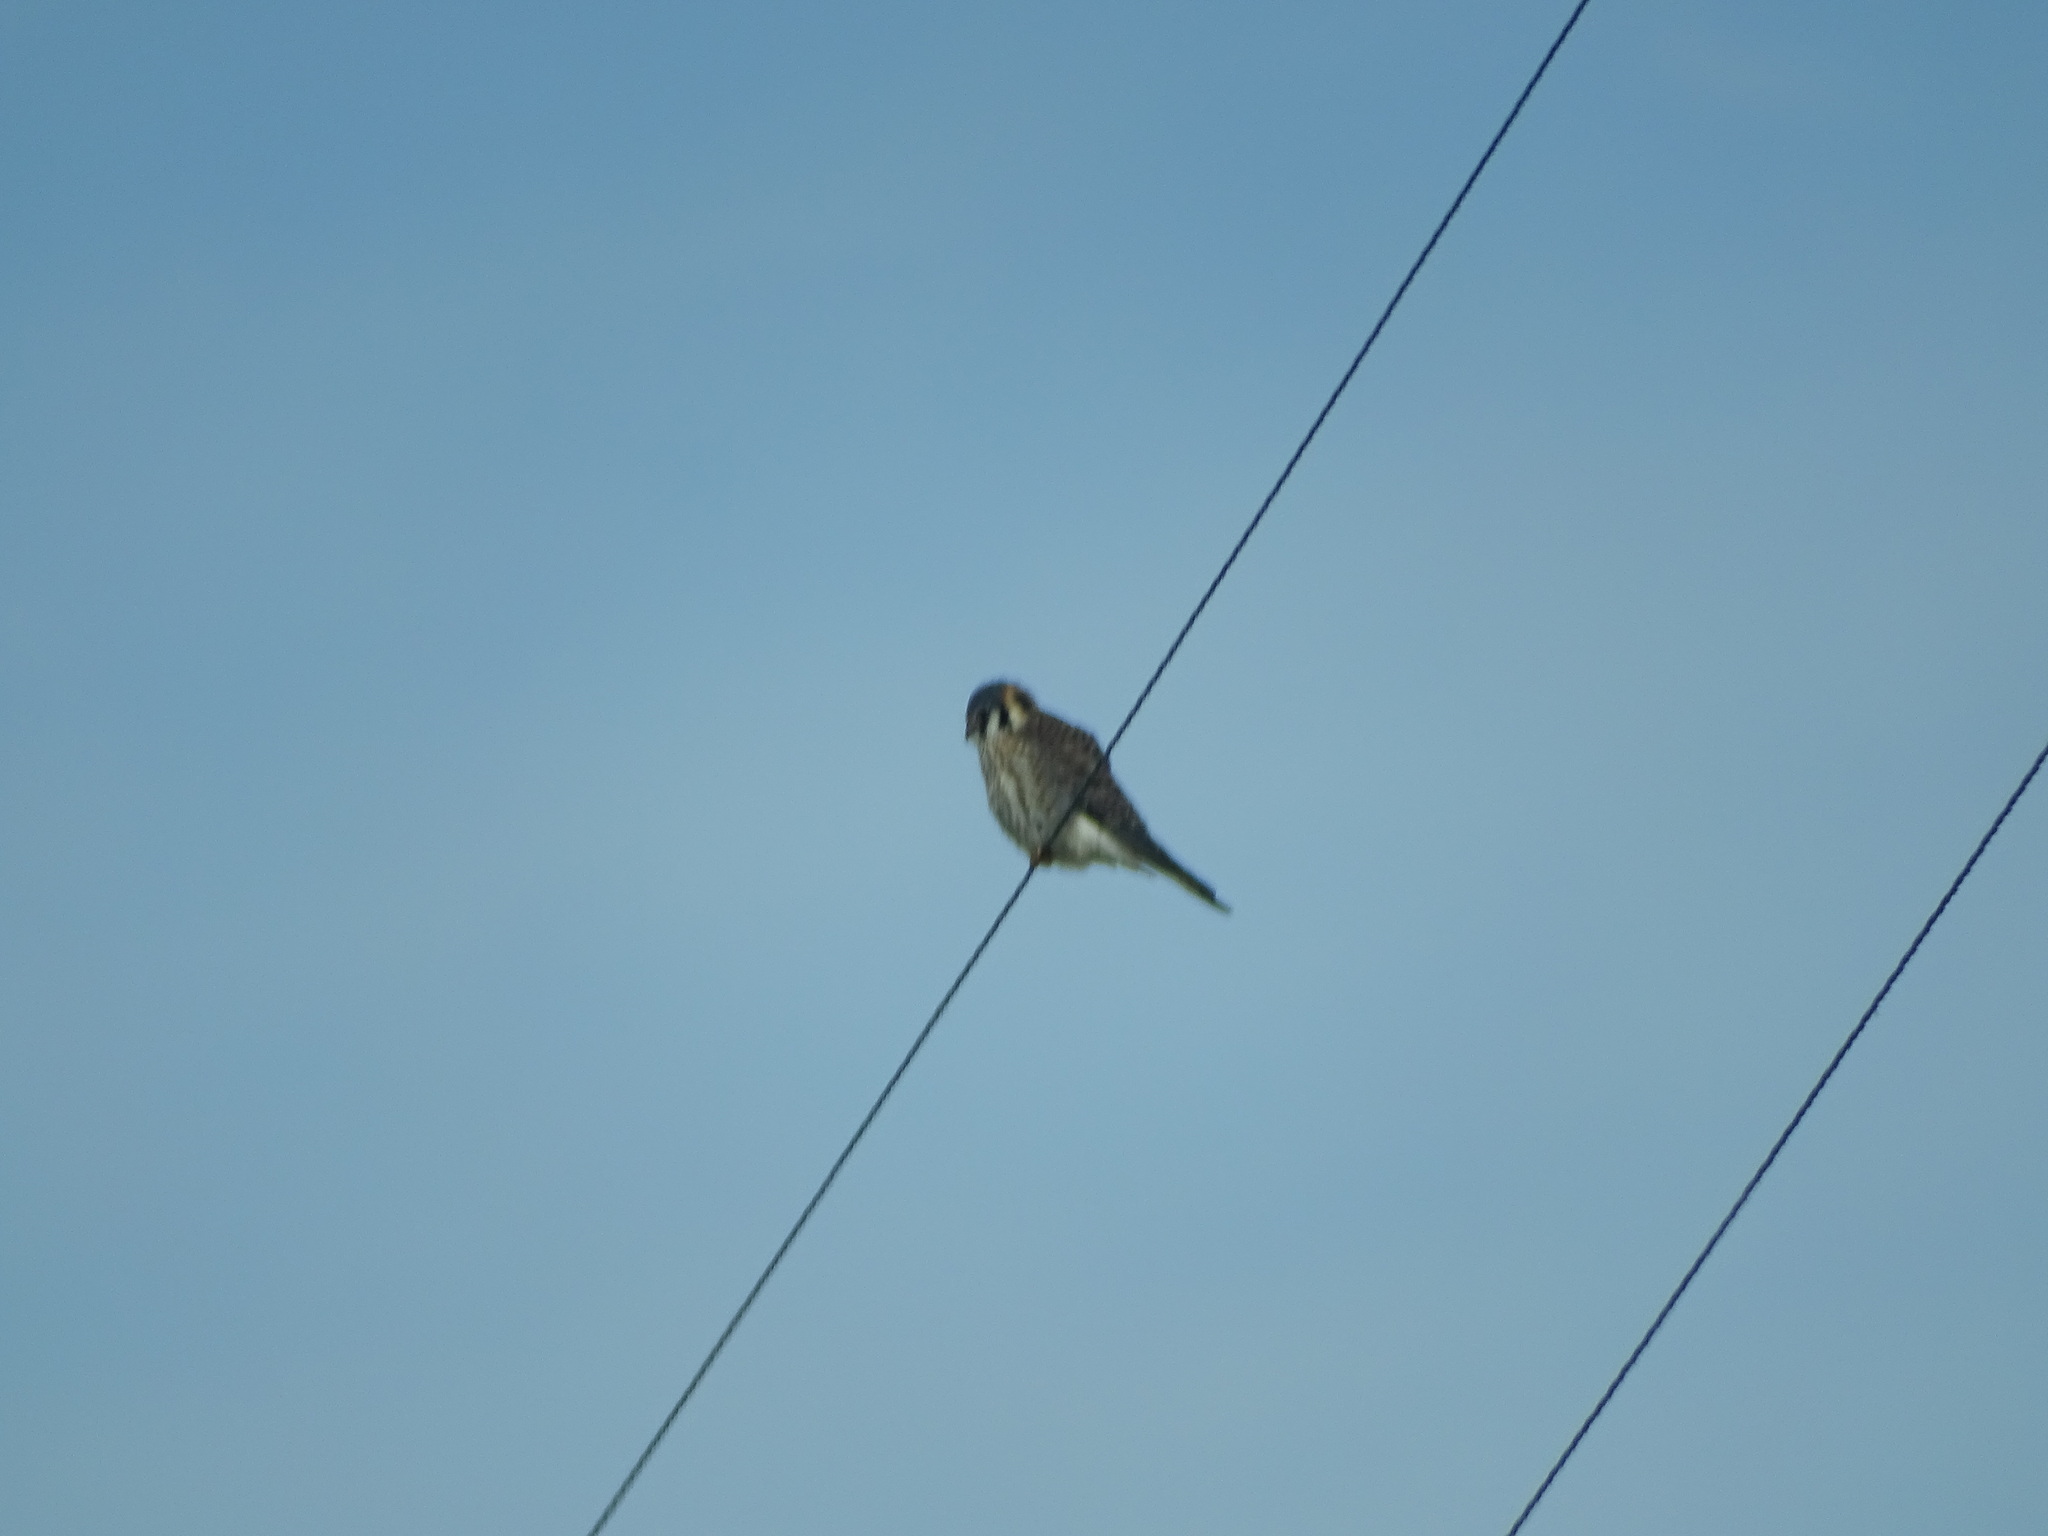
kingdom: Animalia
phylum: Chordata
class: Aves
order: Falconiformes
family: Falconidae
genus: Falco
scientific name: Falco sparverius
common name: American kestrel
